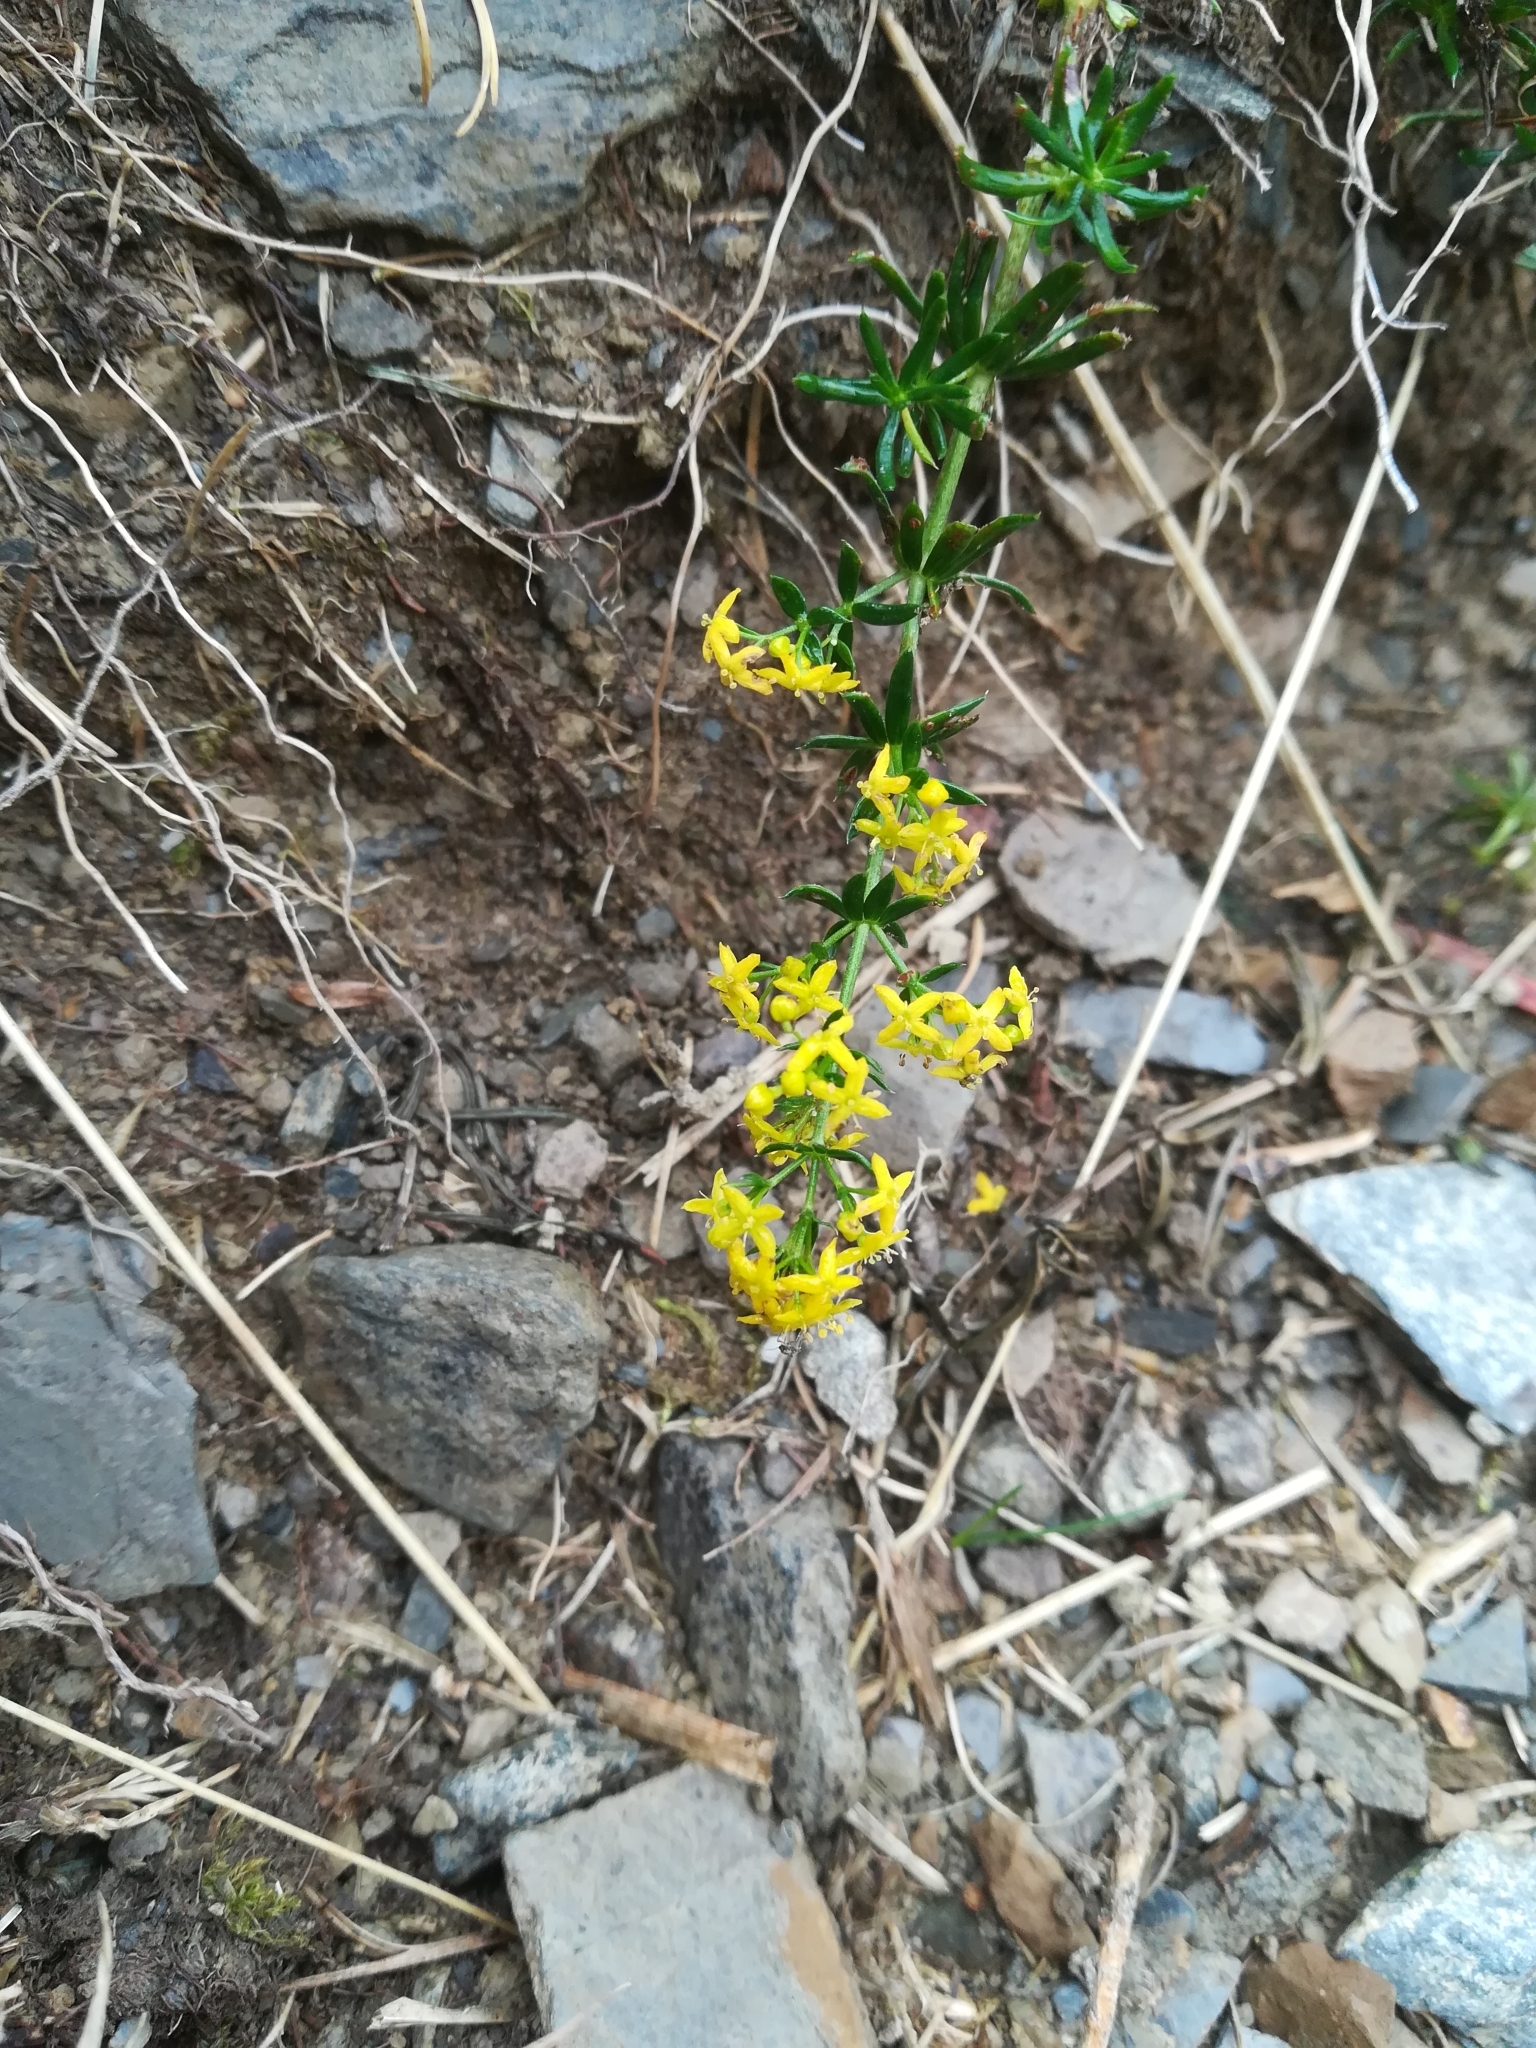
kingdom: Plantae
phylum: Tracheophyta
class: Magnoliopsida
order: Gentianales
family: Rubiaceae
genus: Galium
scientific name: Galium verum
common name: Lady's bedstraw
